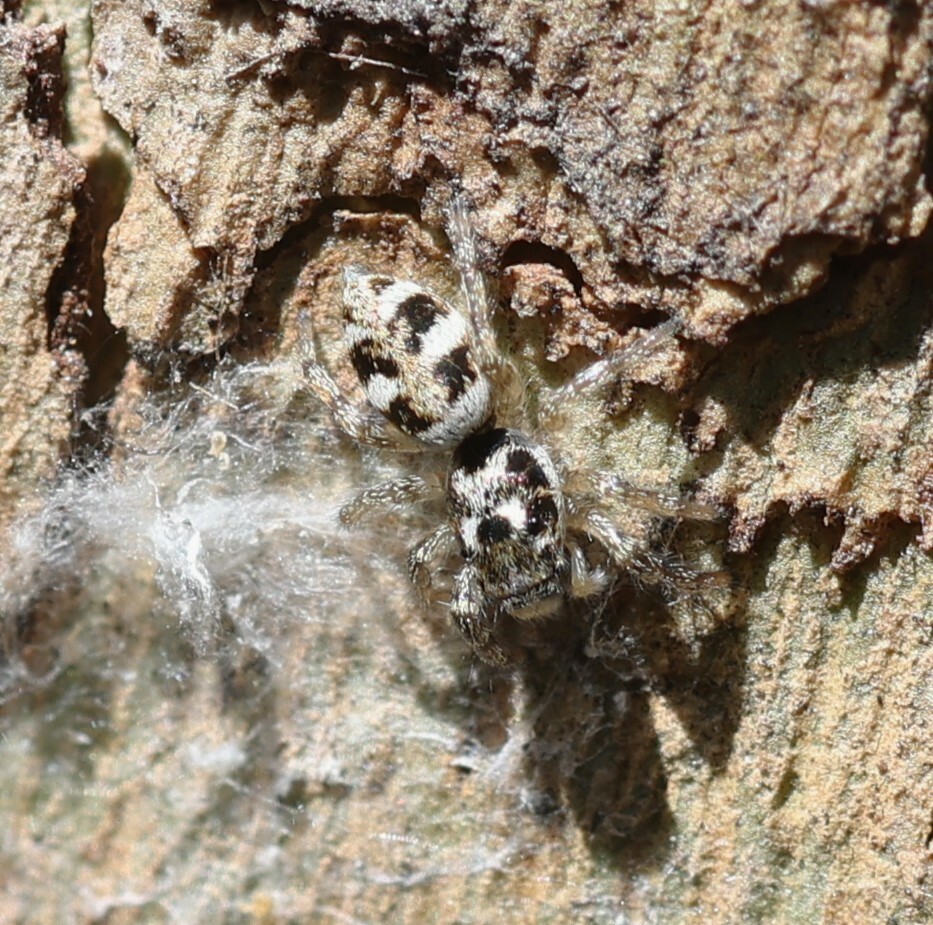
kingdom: Animalia
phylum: Arthropoda
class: Arachnida
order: Araneae
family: Salticidae
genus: Salticus
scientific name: Salticus scenicus
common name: Zebra jumper
